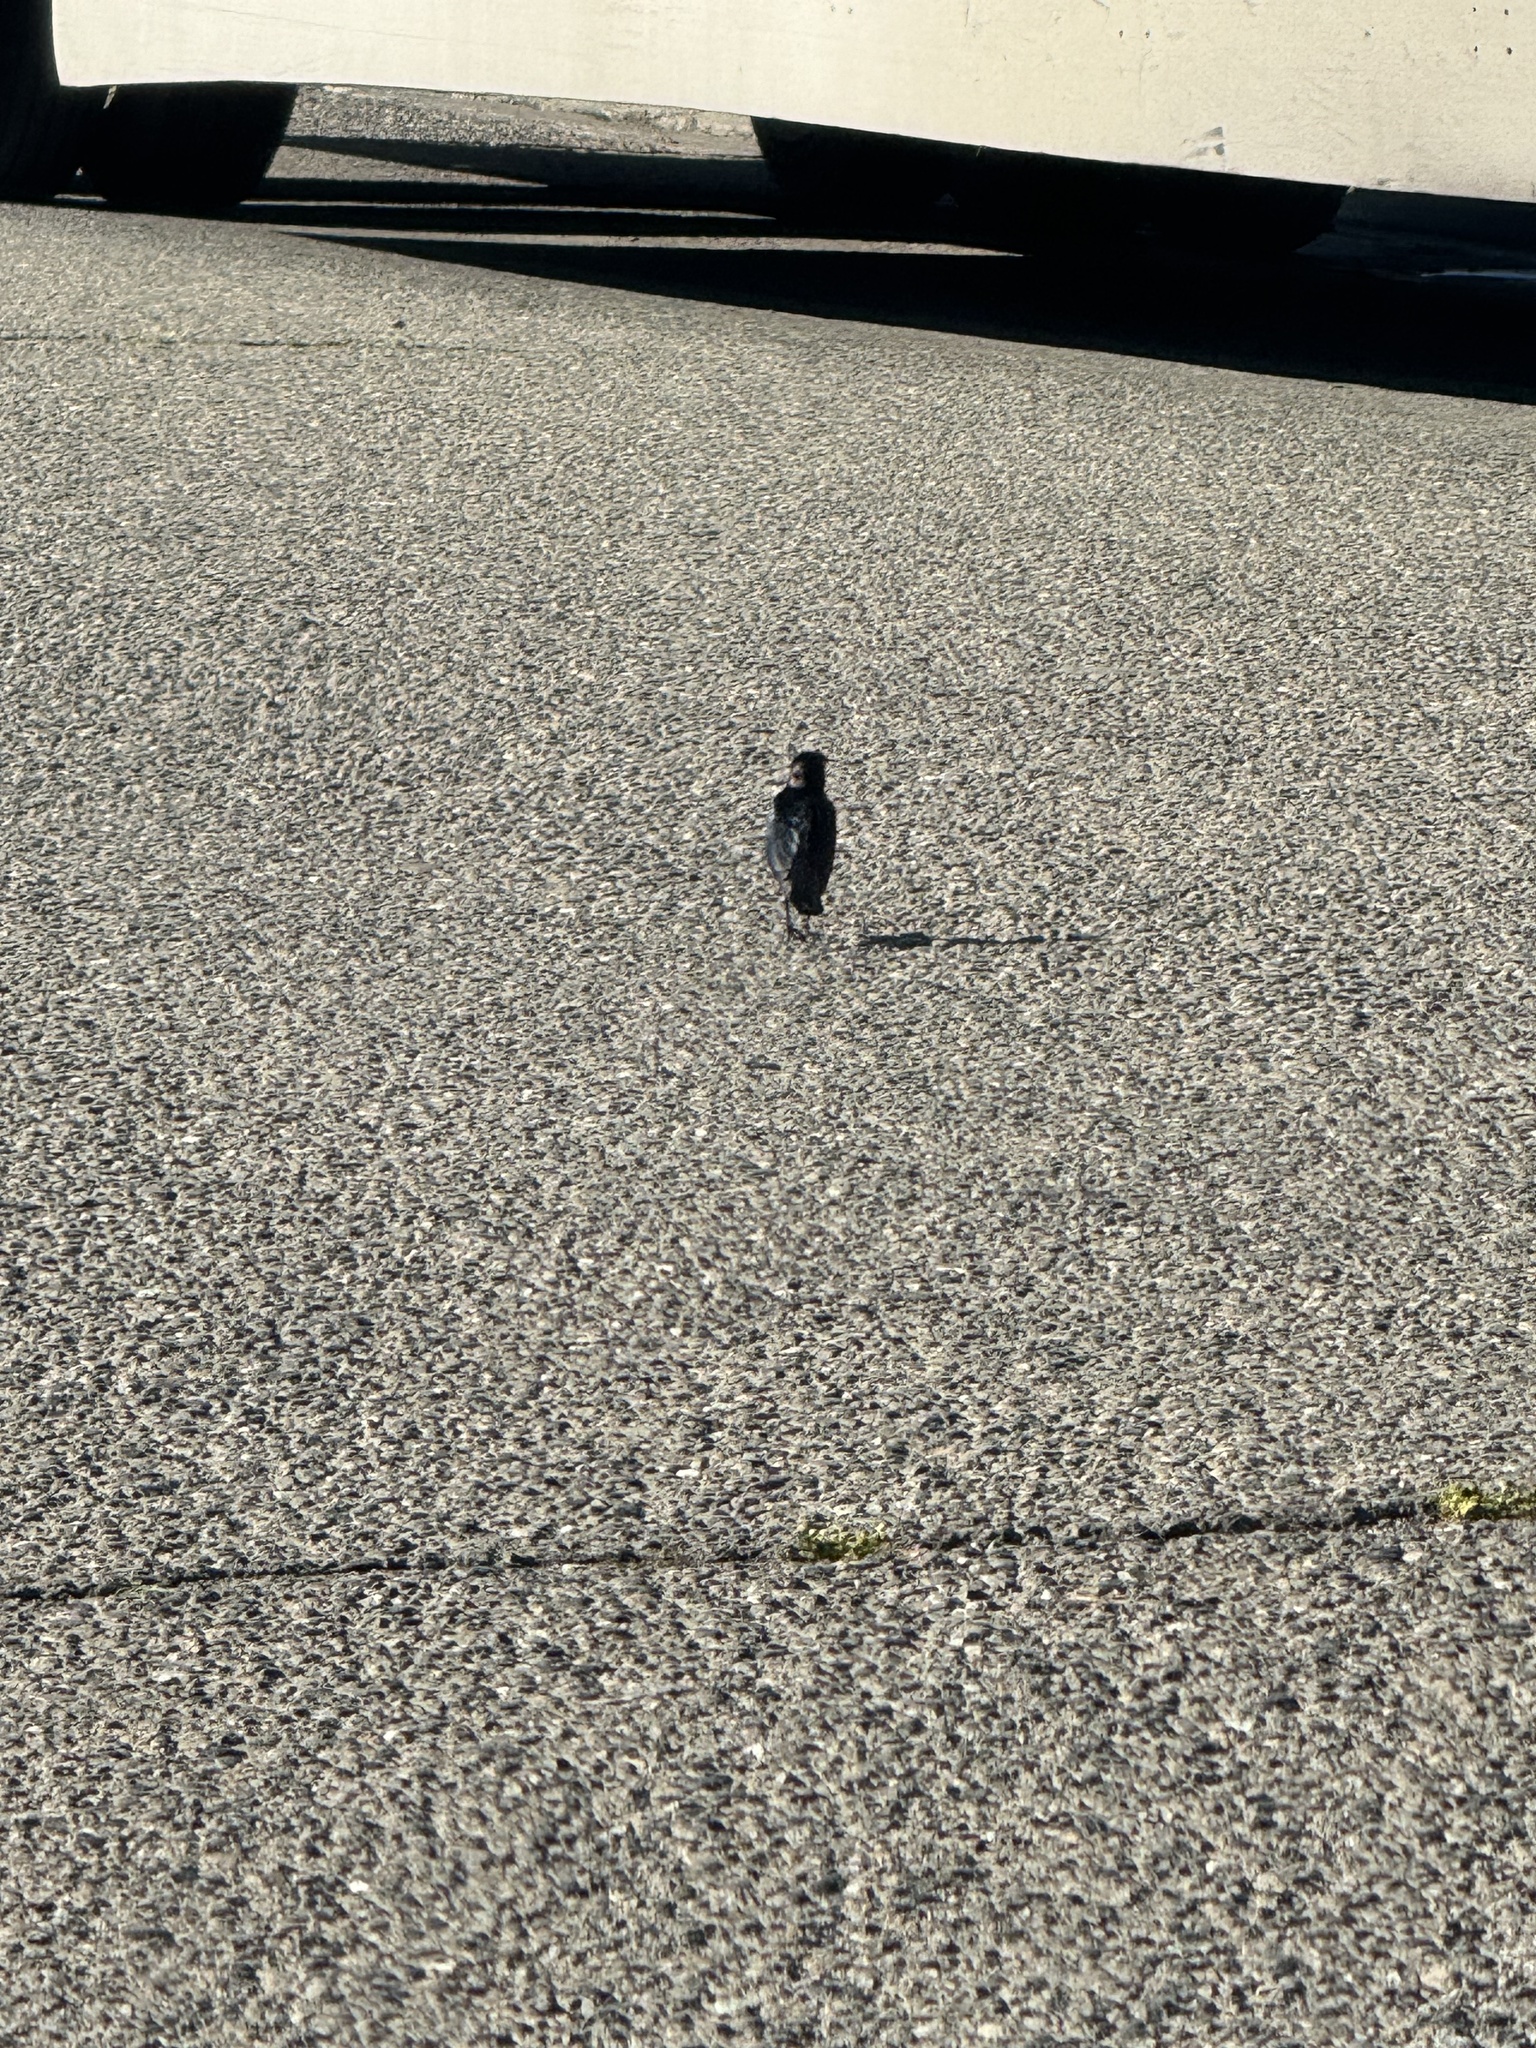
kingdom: Animalia
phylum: Chordata
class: Aves
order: Passeriformes
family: Icteridae
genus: Euphagus
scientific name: Euphagus cyanocephalus
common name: Brewer's blackbird
